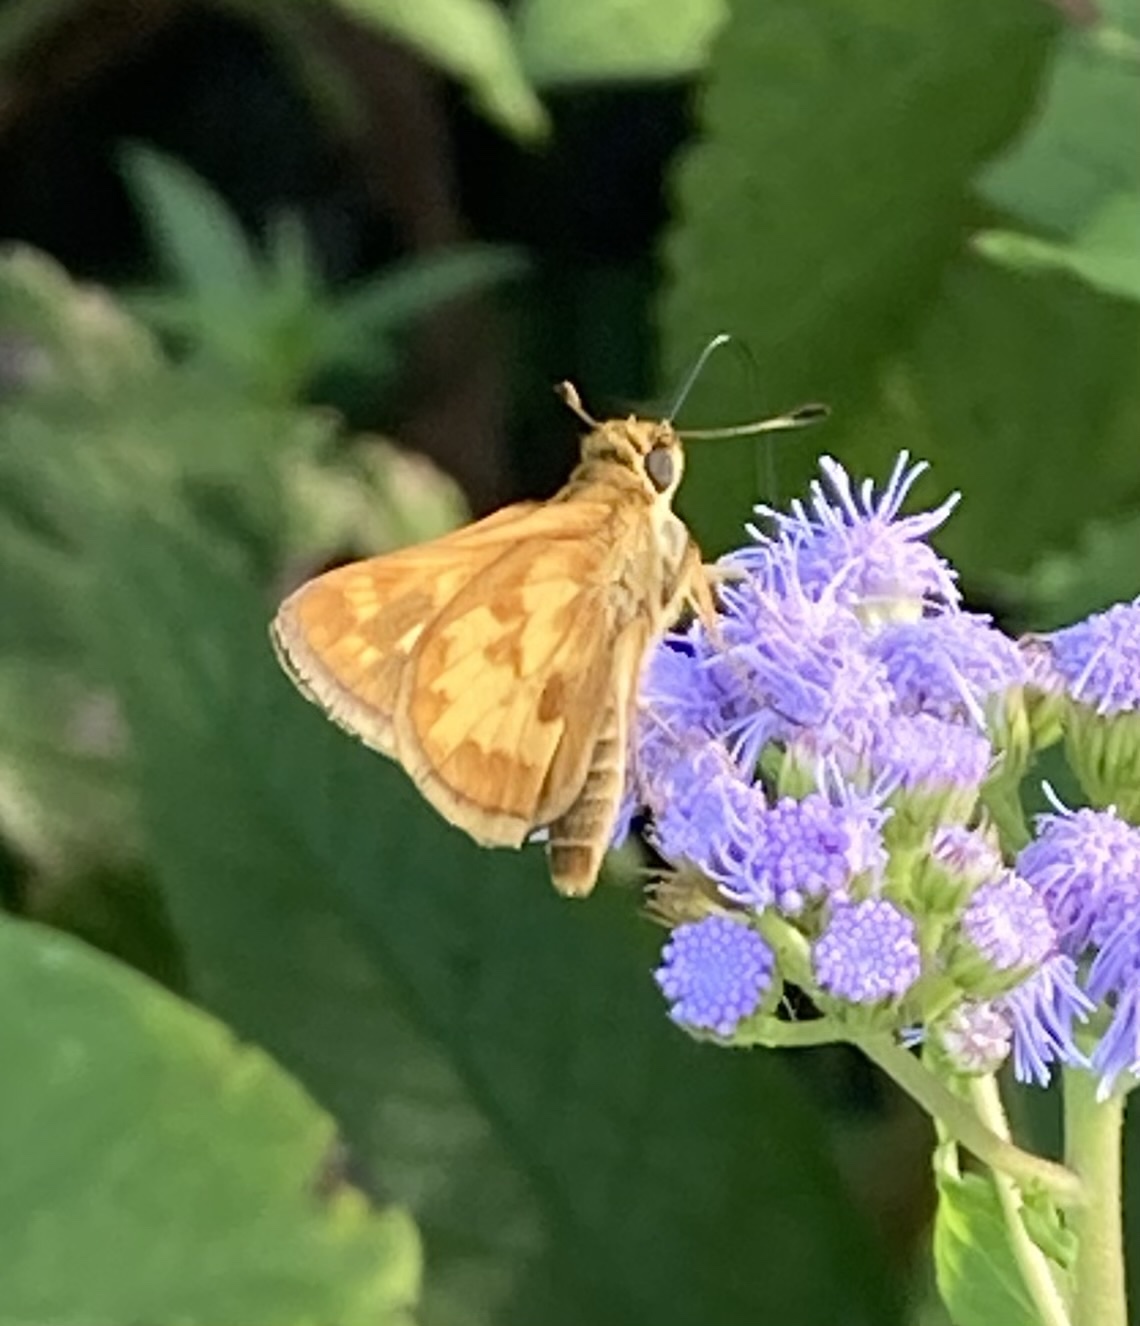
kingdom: Animalia
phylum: Arthropoda
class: Insecta
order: Lepidoptera
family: Hesperiidae
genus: Polites
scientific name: Polites coras
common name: Peck's skipper
